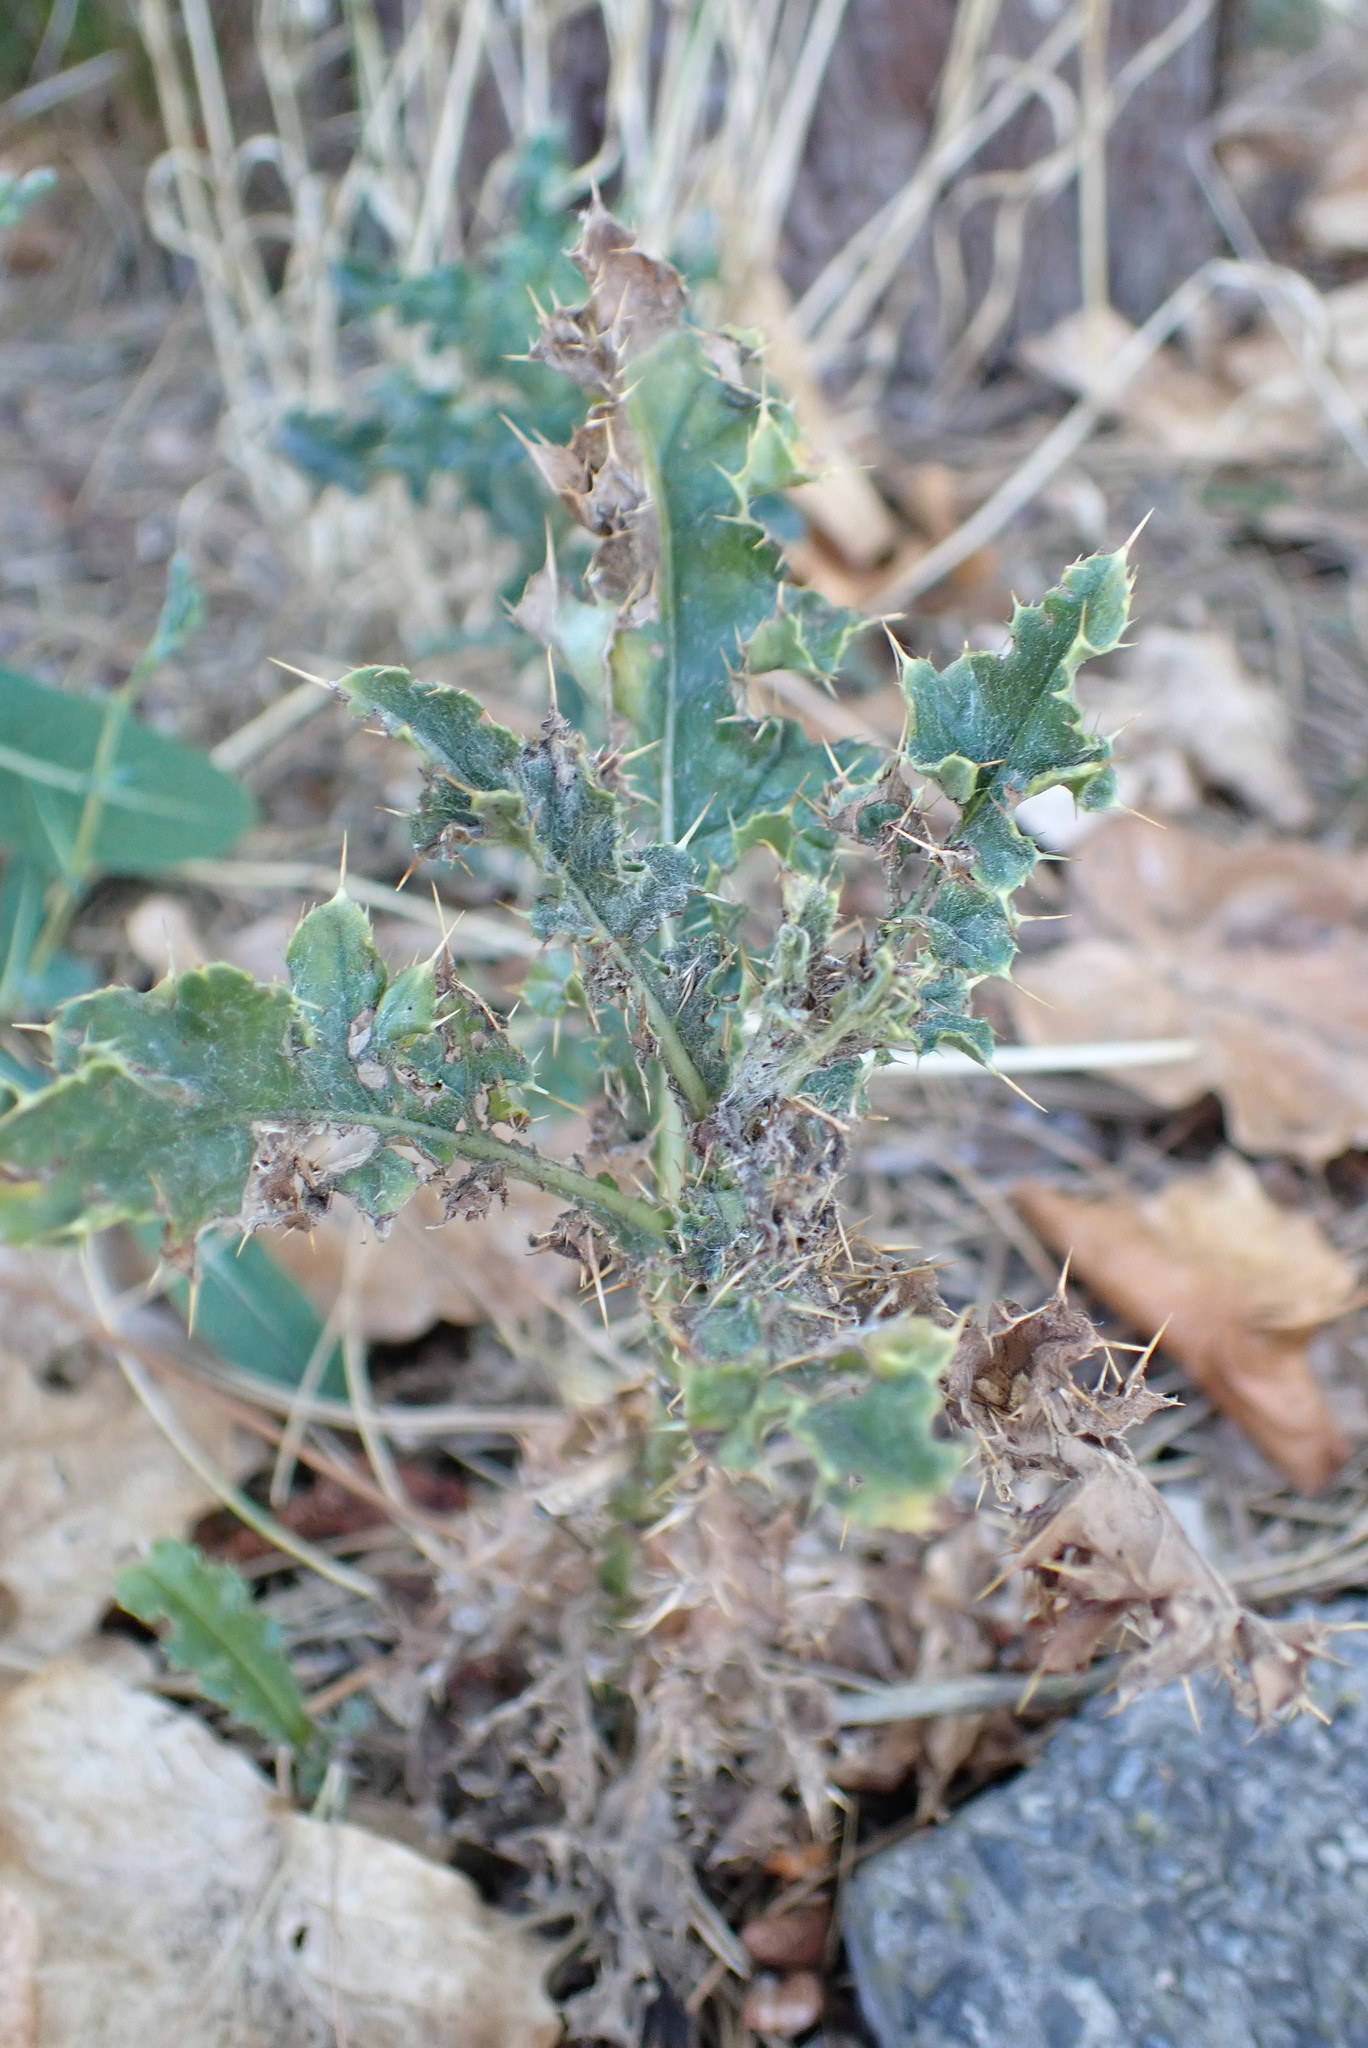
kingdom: Plantae
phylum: Tracheophyta
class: Magnoliopsida
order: Asterales
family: Asteraceae
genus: Cirsium
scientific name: Cirsium arvense
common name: Creeping thistle
